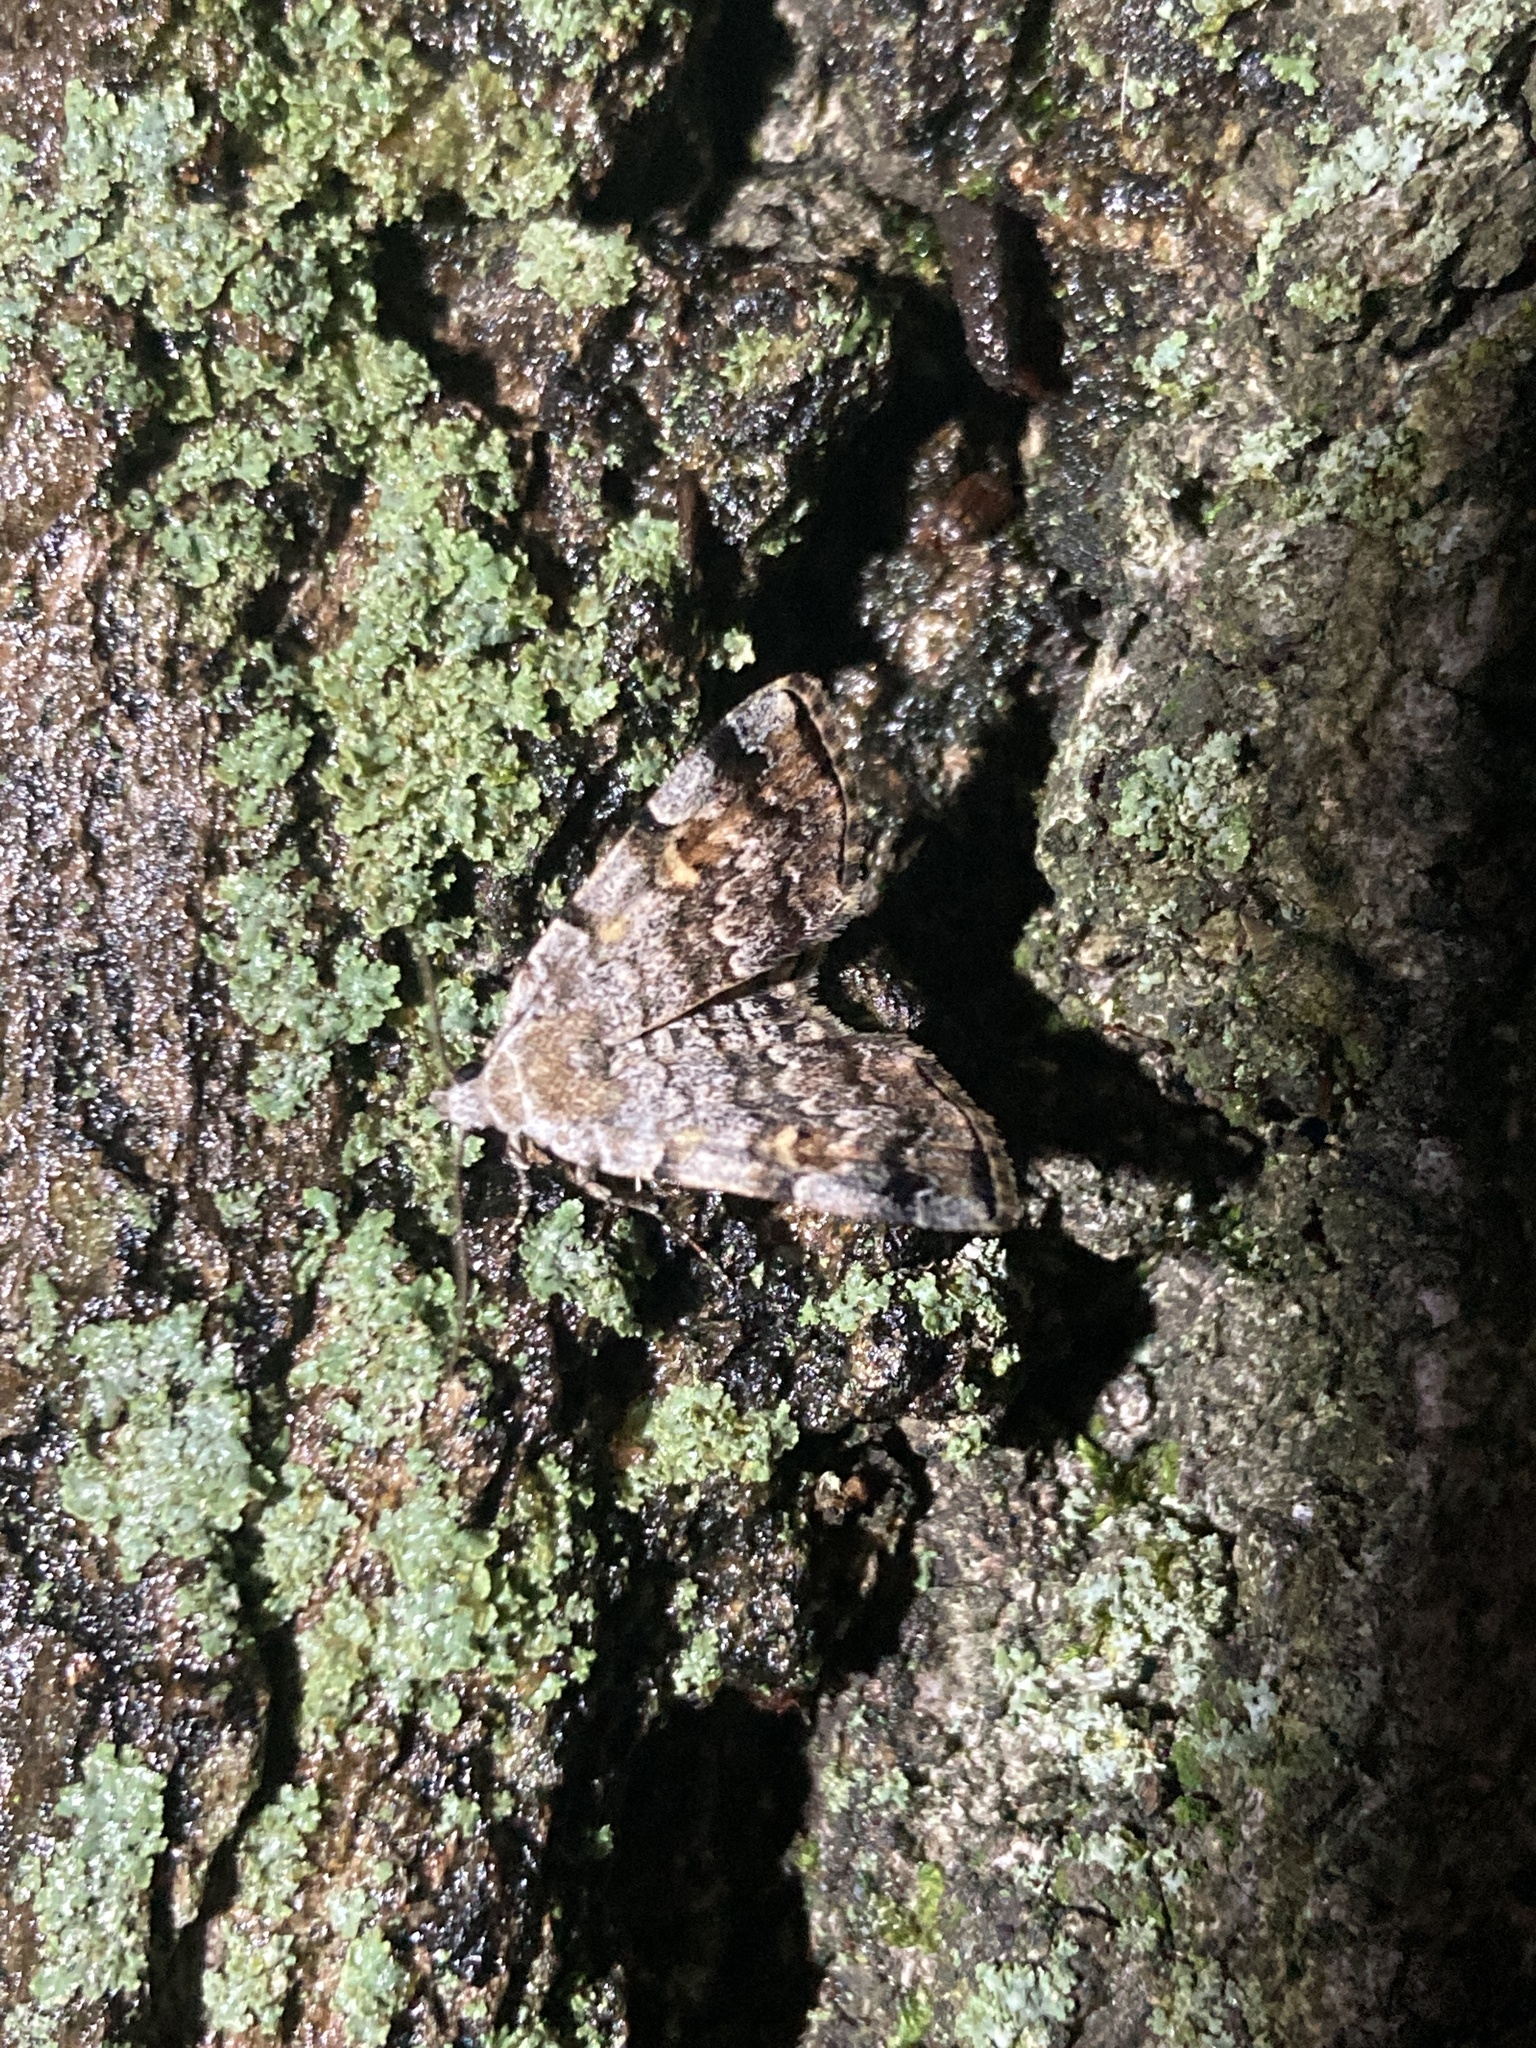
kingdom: Animalia
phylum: Arthropoda
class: Insecta
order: Lepidoptera
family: Erebidae
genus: Idia
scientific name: Idia americalis
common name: American idia moth
